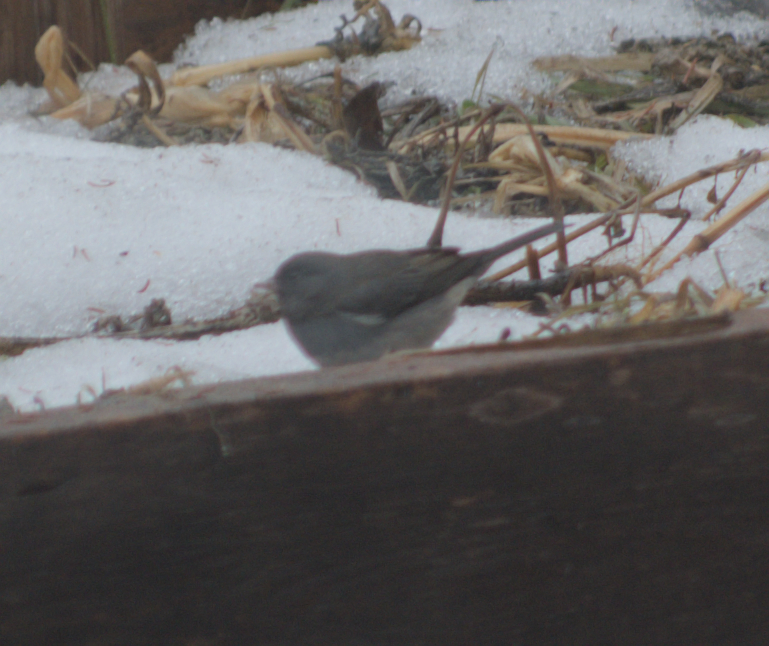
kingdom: Animalia
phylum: Chordata
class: Aves
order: Passeriformes
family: Passerellidae
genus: Junco
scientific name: Junco hyemalis
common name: Dark-eyed junco
